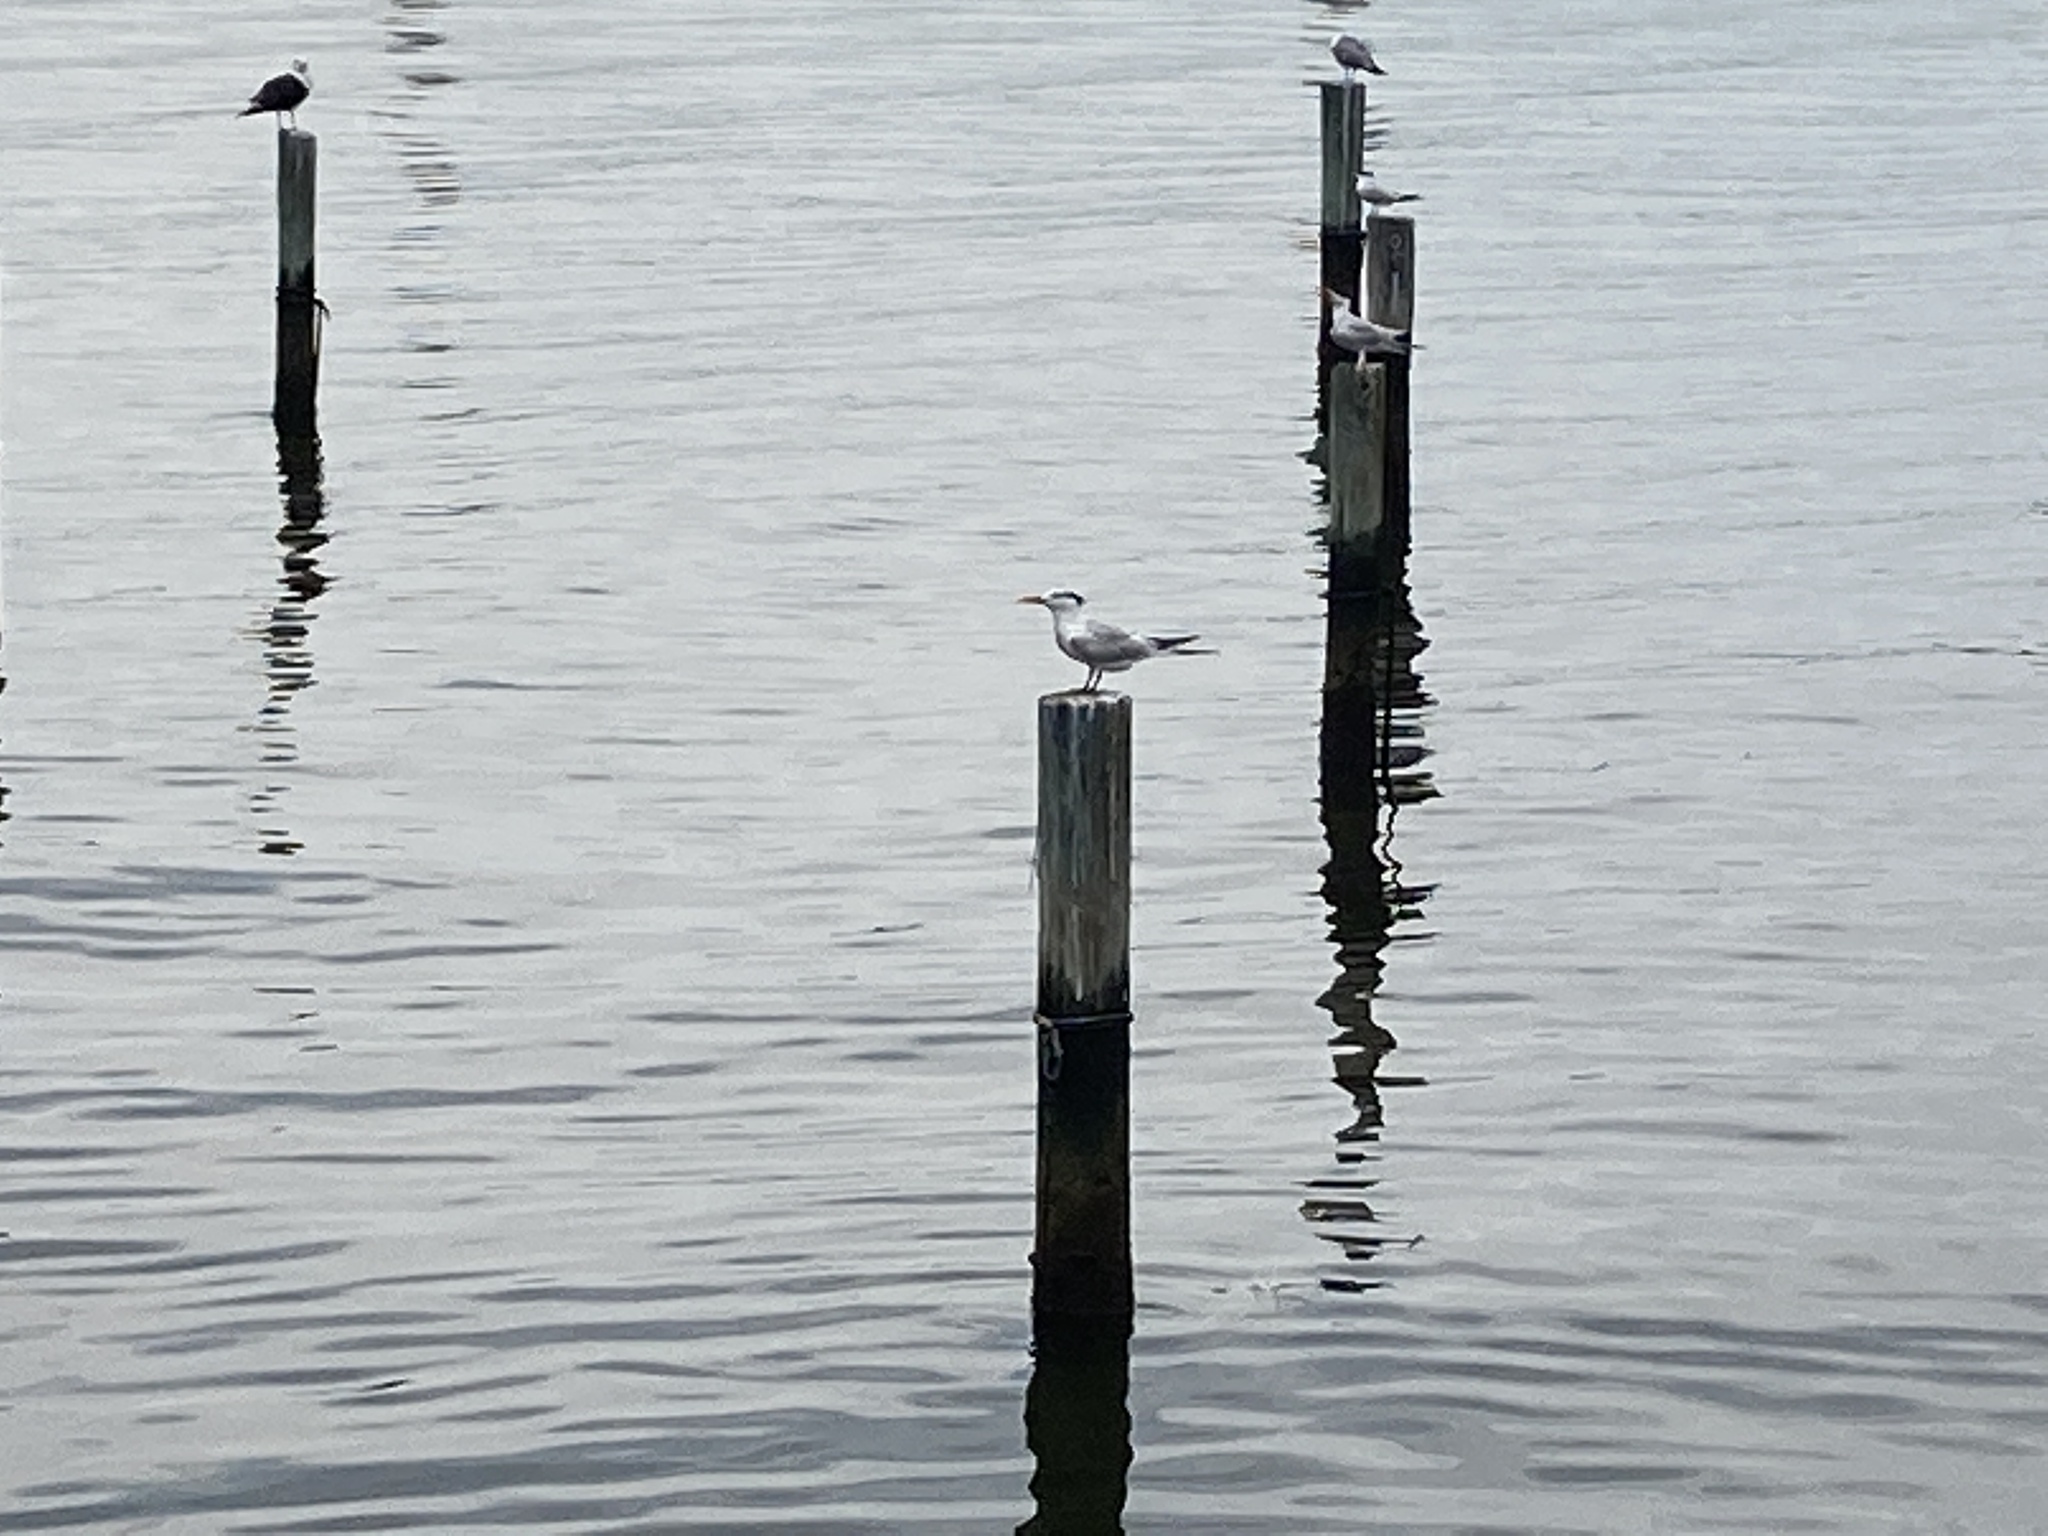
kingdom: Animalia
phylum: Chordata
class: Aves
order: Charadriiformes
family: Laridae
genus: Thalasseus
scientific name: Thalasseus maximus
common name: Royal tern
